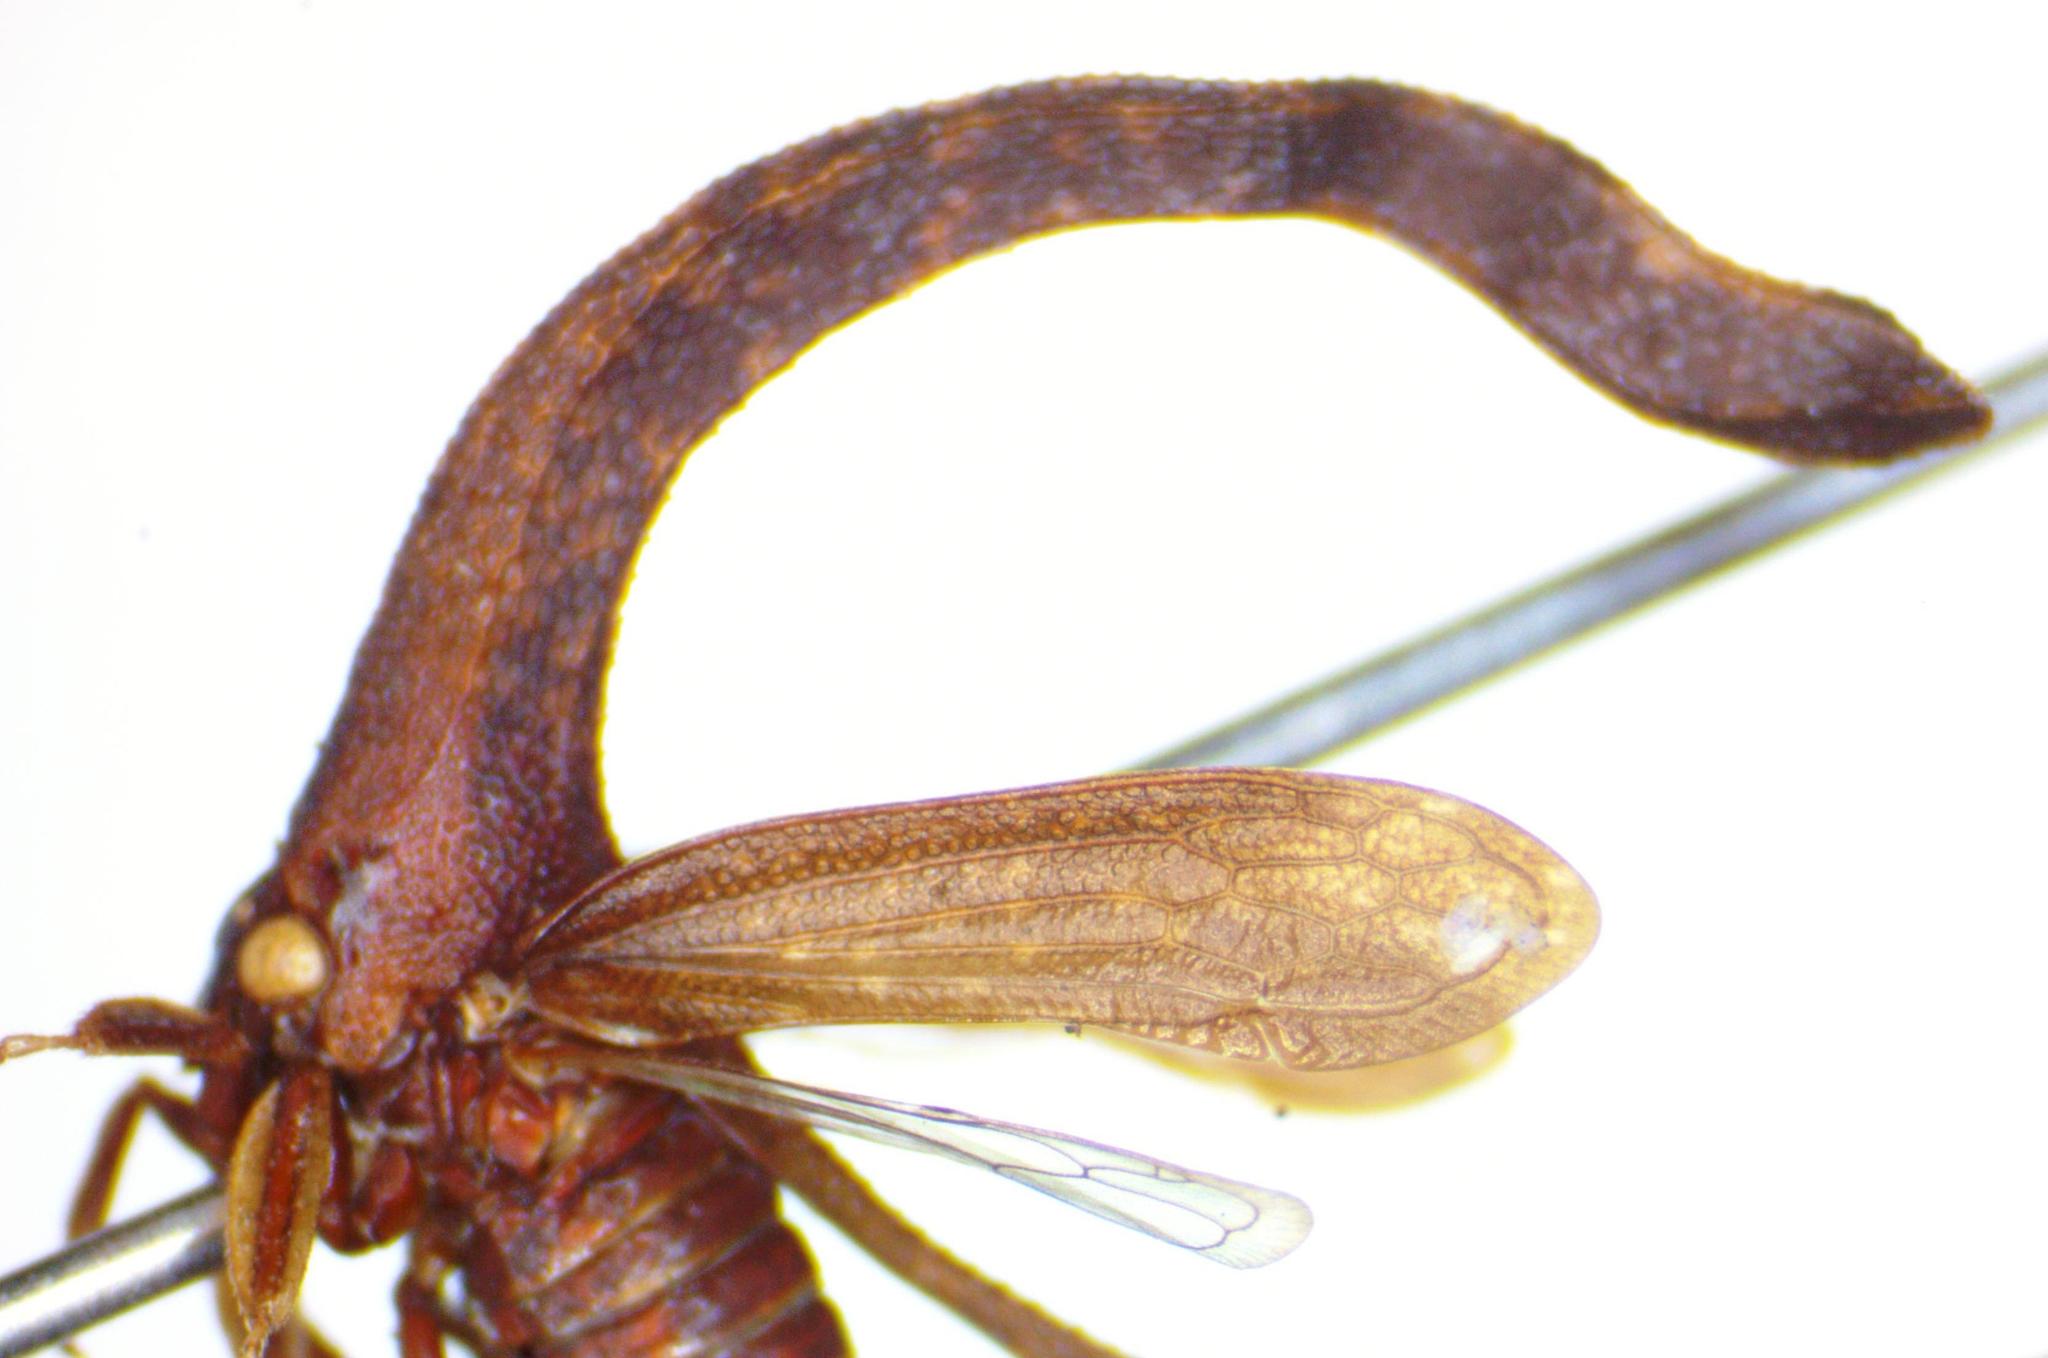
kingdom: Animalia
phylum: Arthropoda
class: Insecta
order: Hemiptera
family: Membracidae
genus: Cladonota
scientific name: Cladonota apicalis
